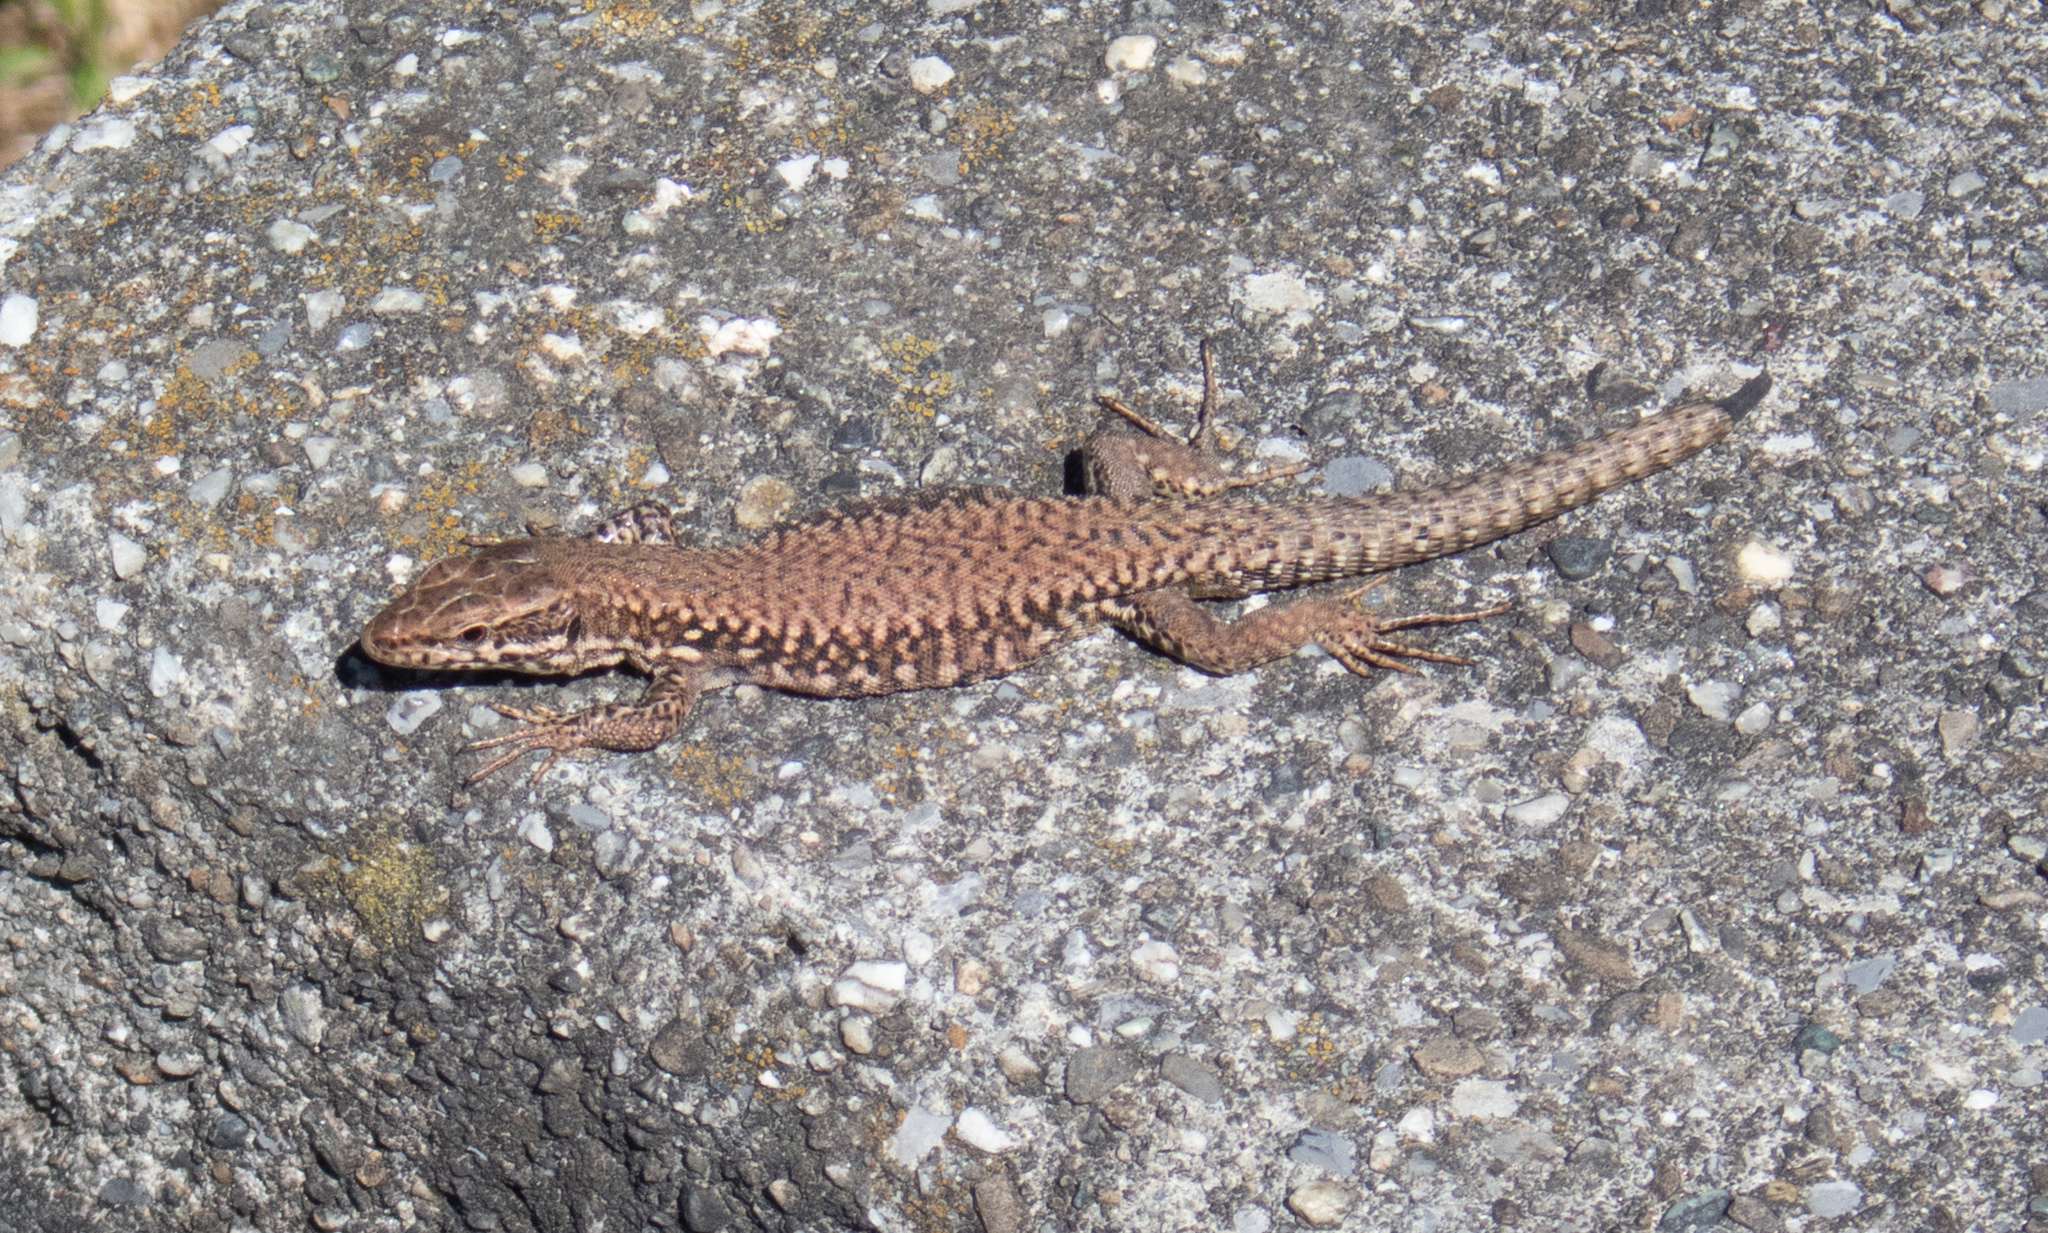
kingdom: Animalia
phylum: Chordata
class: Squamata
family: Lacertidae
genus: Podarcis
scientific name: Podarcis muralis
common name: Common wall lizard
